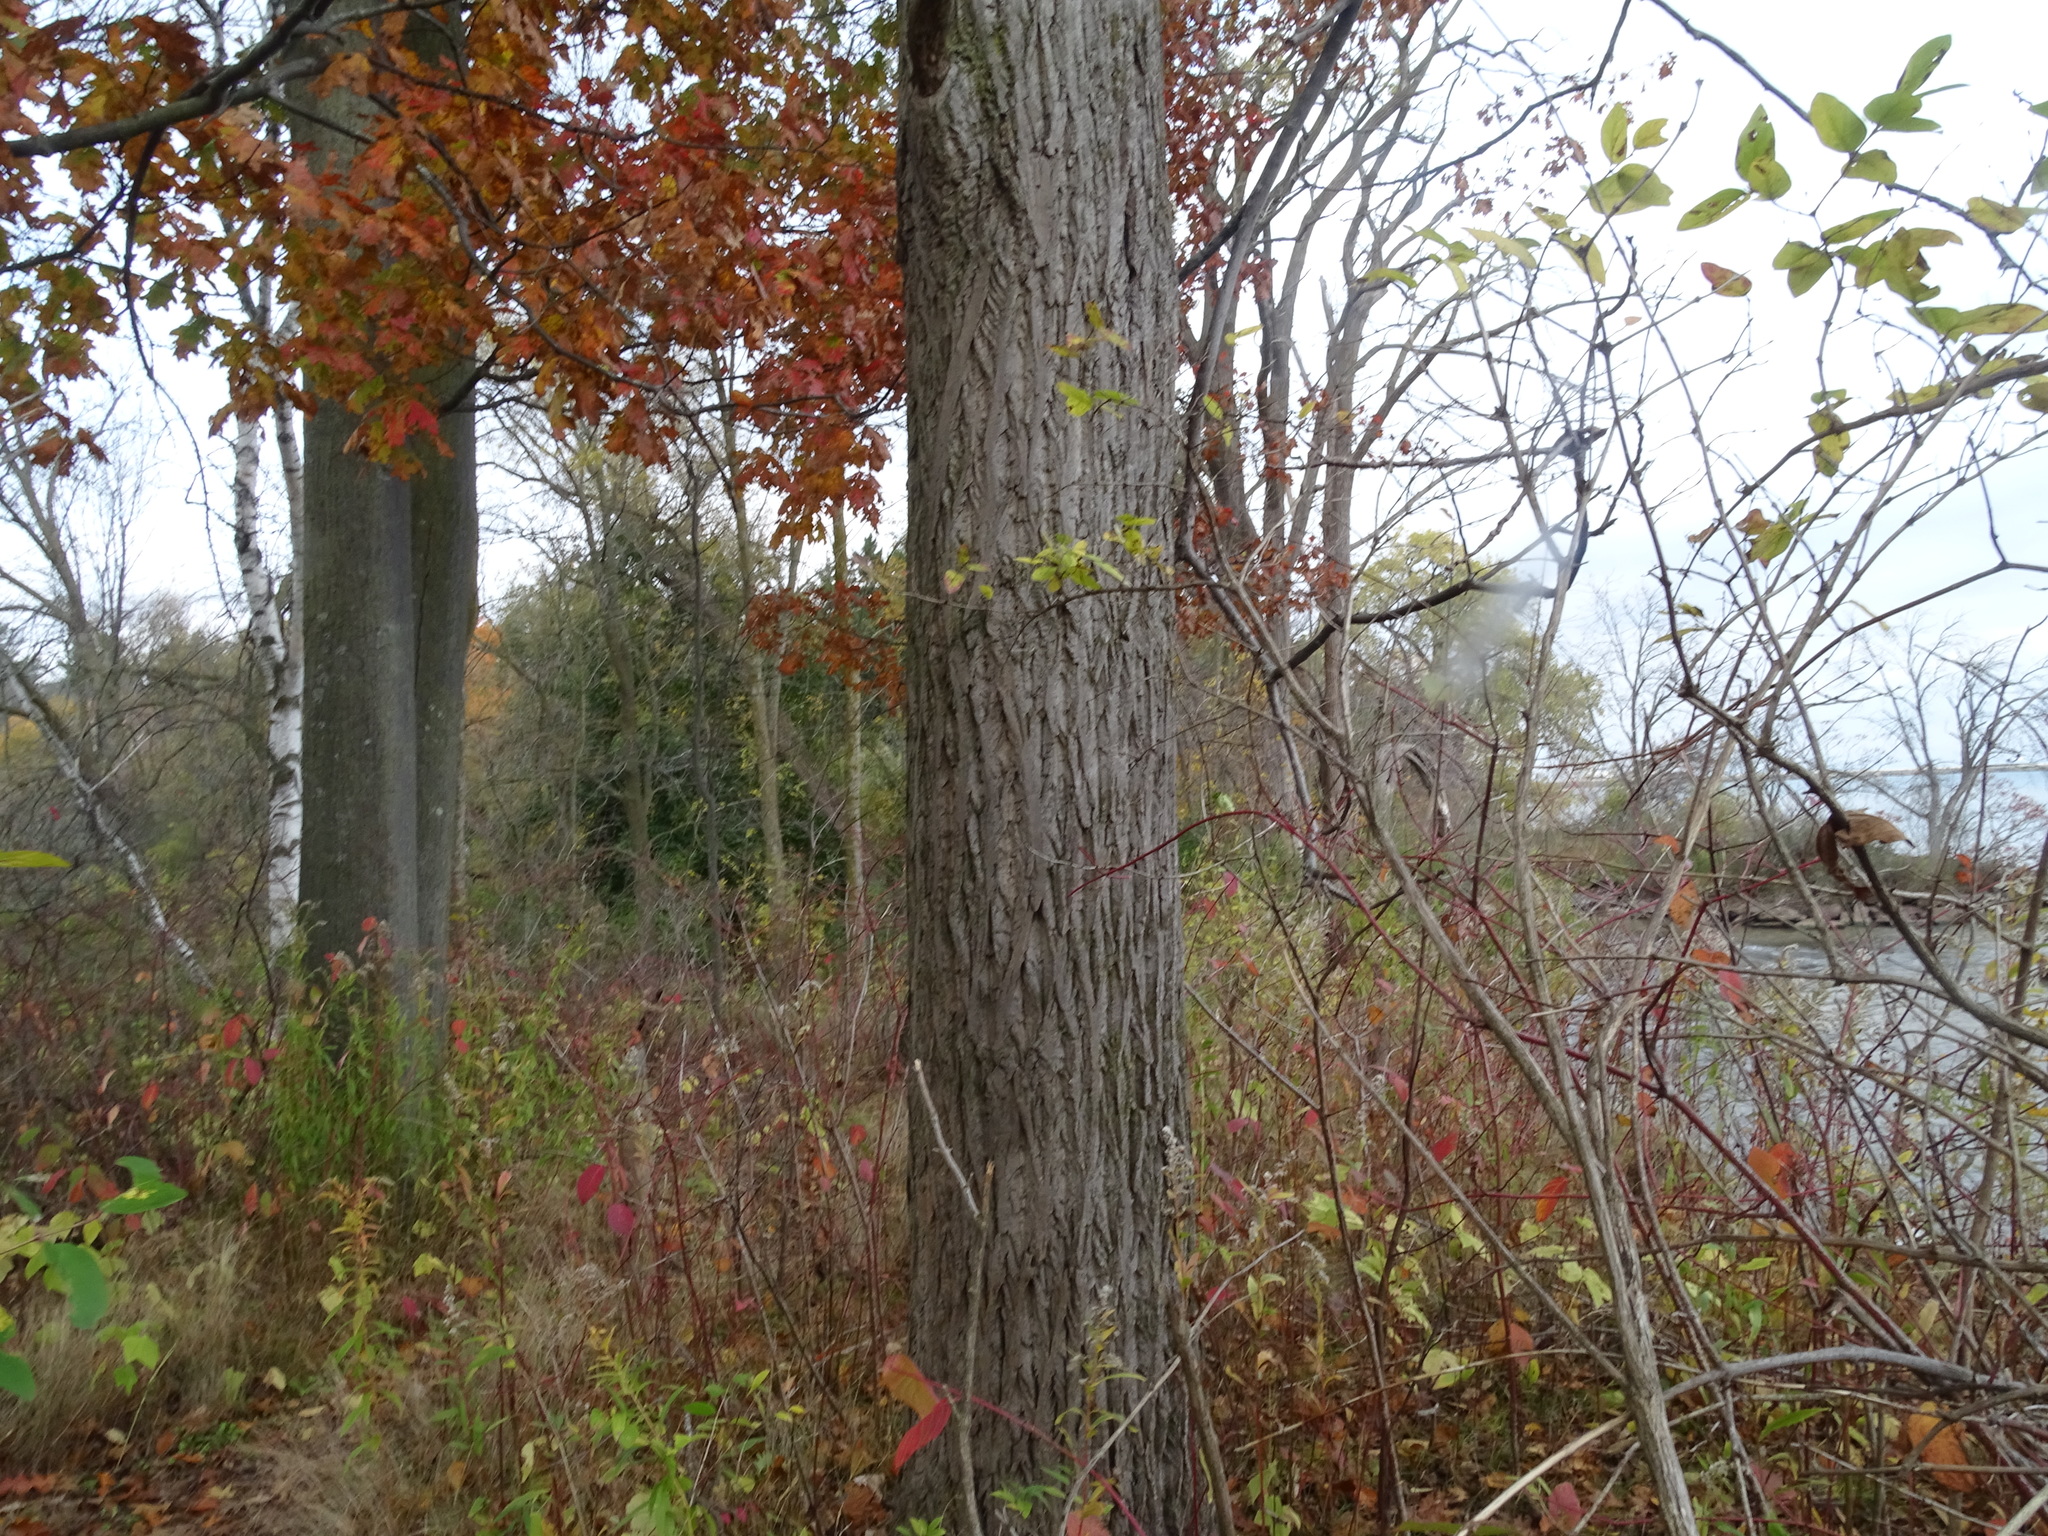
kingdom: Plantae
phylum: Tracheophyta
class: Magnoliopsida
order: Fagales
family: Juglandaceae
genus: Juglans
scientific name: Juglans cinerea
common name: Butternut
